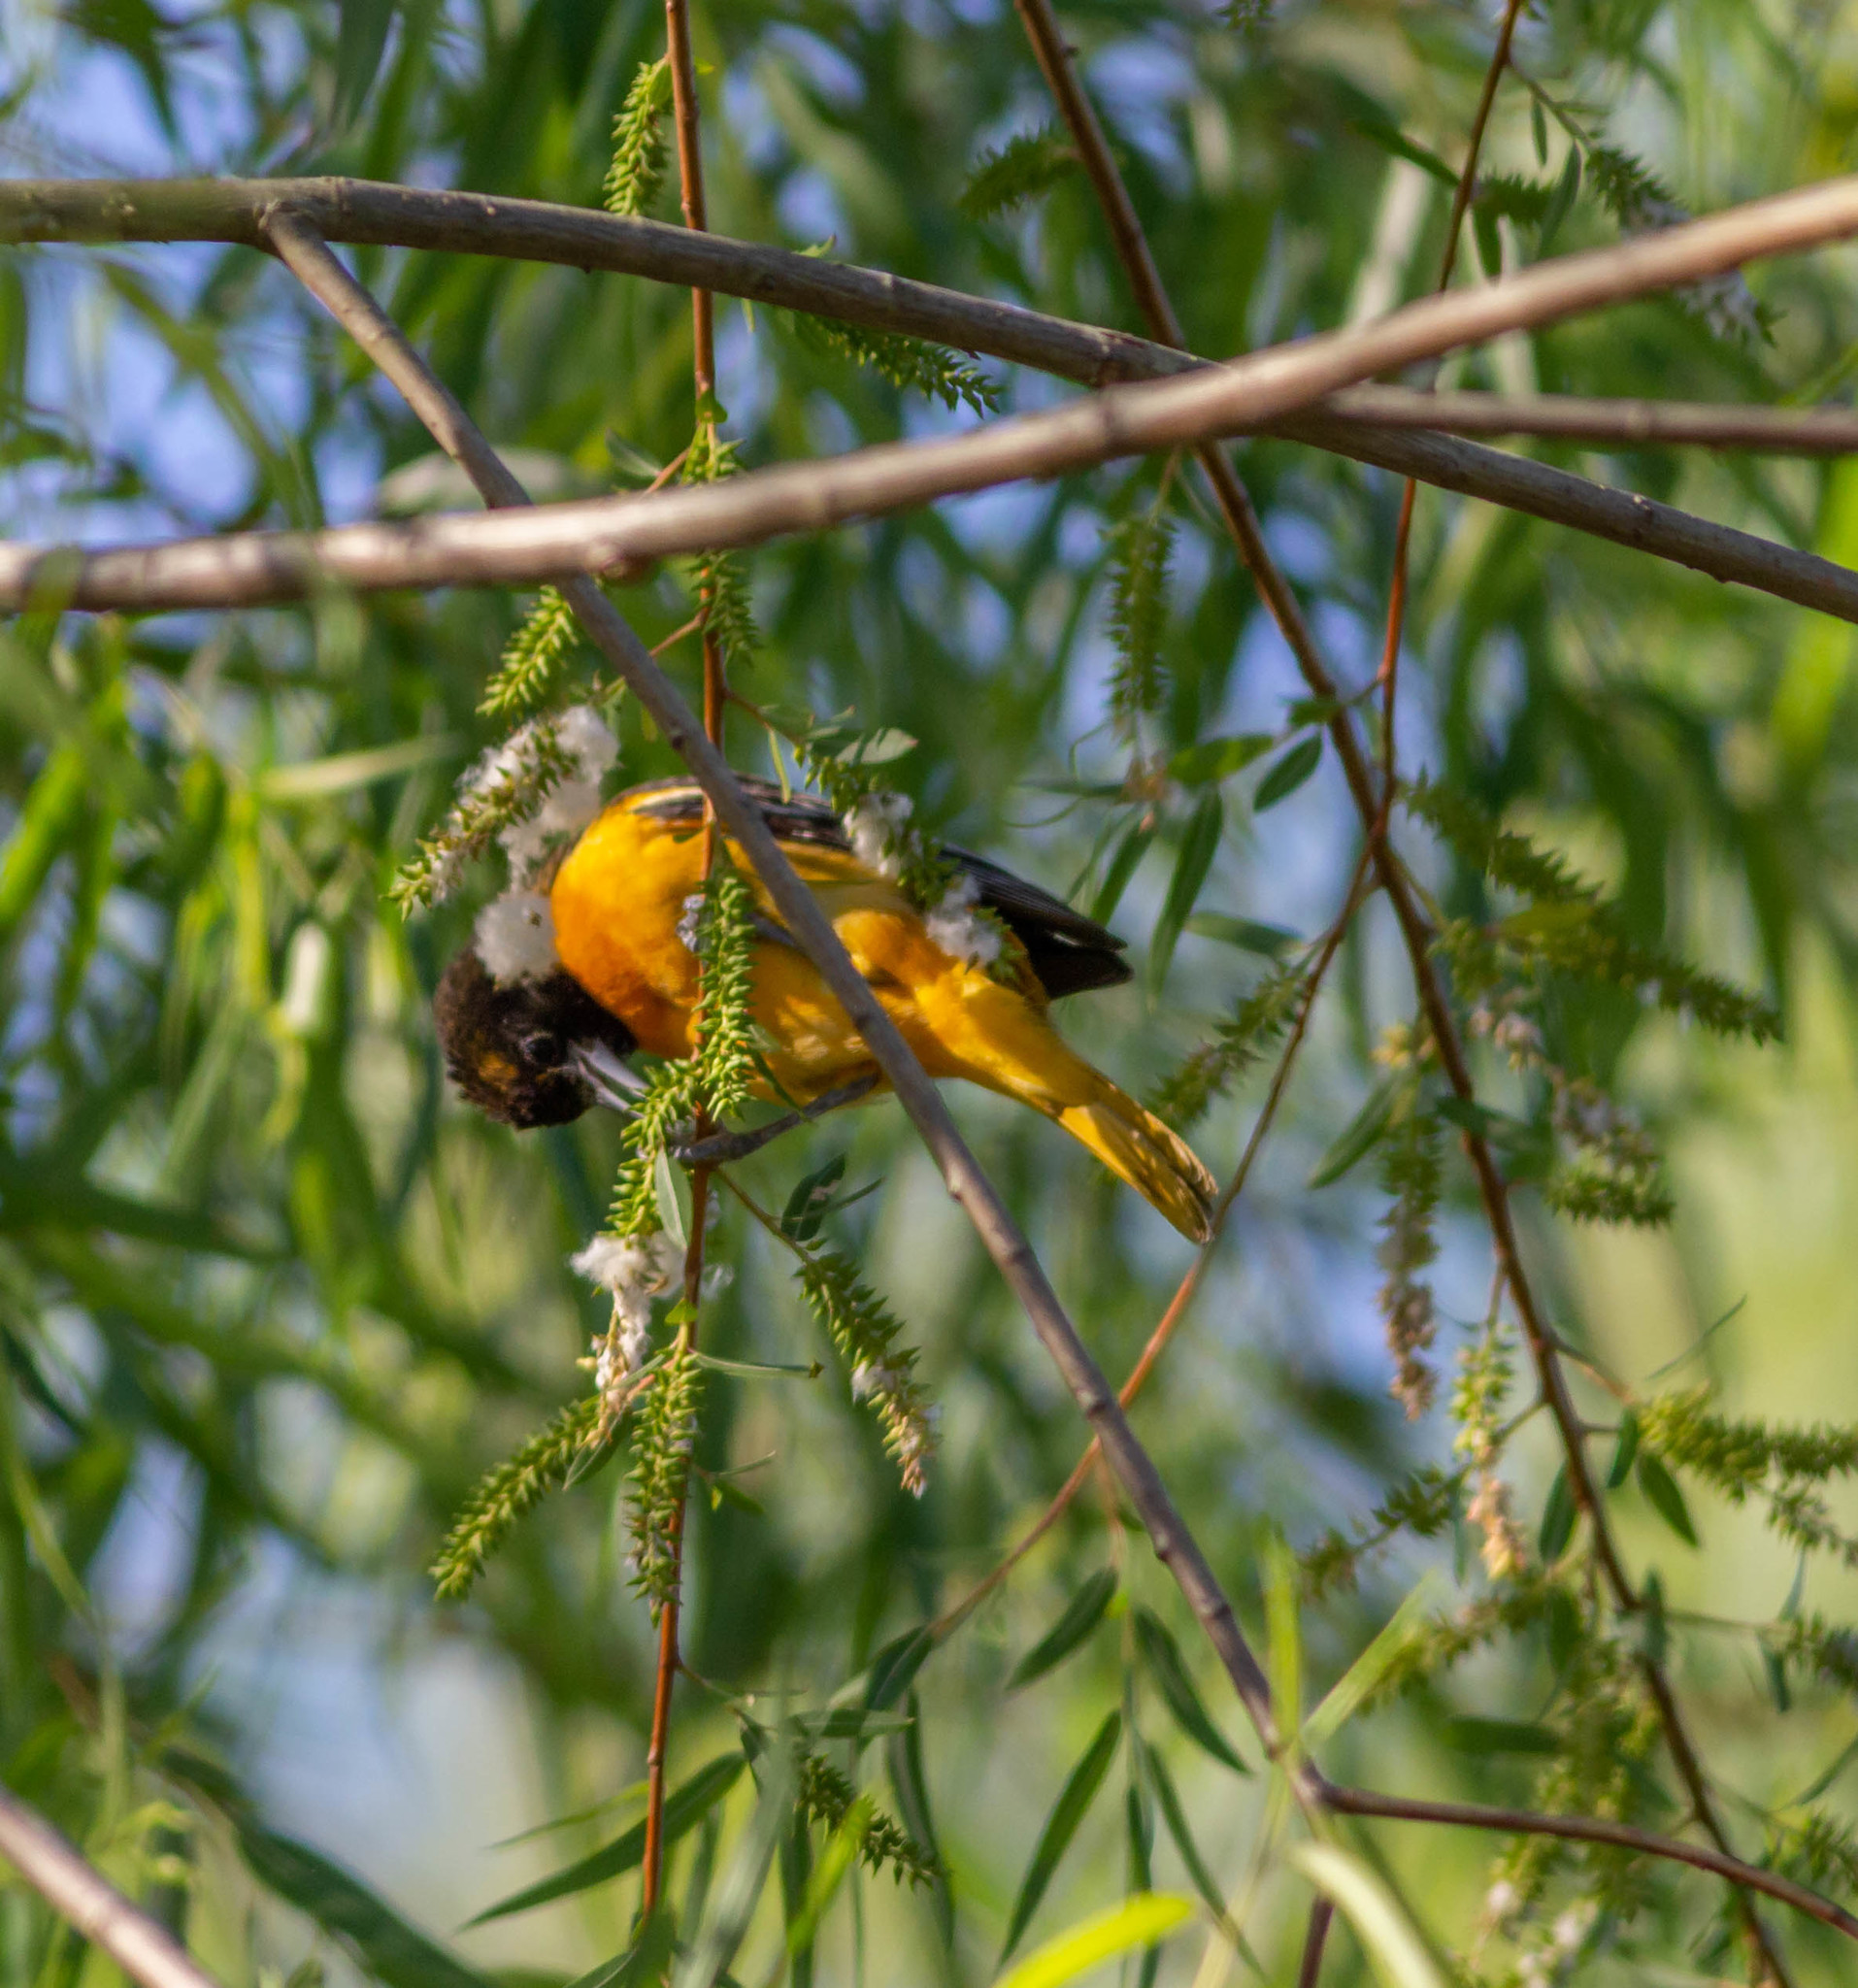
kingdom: Animalia
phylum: Chordata
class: Aves
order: Passeriformes
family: Icteridae
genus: Icterus
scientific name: Icterus galbula
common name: Baltimore oriole
